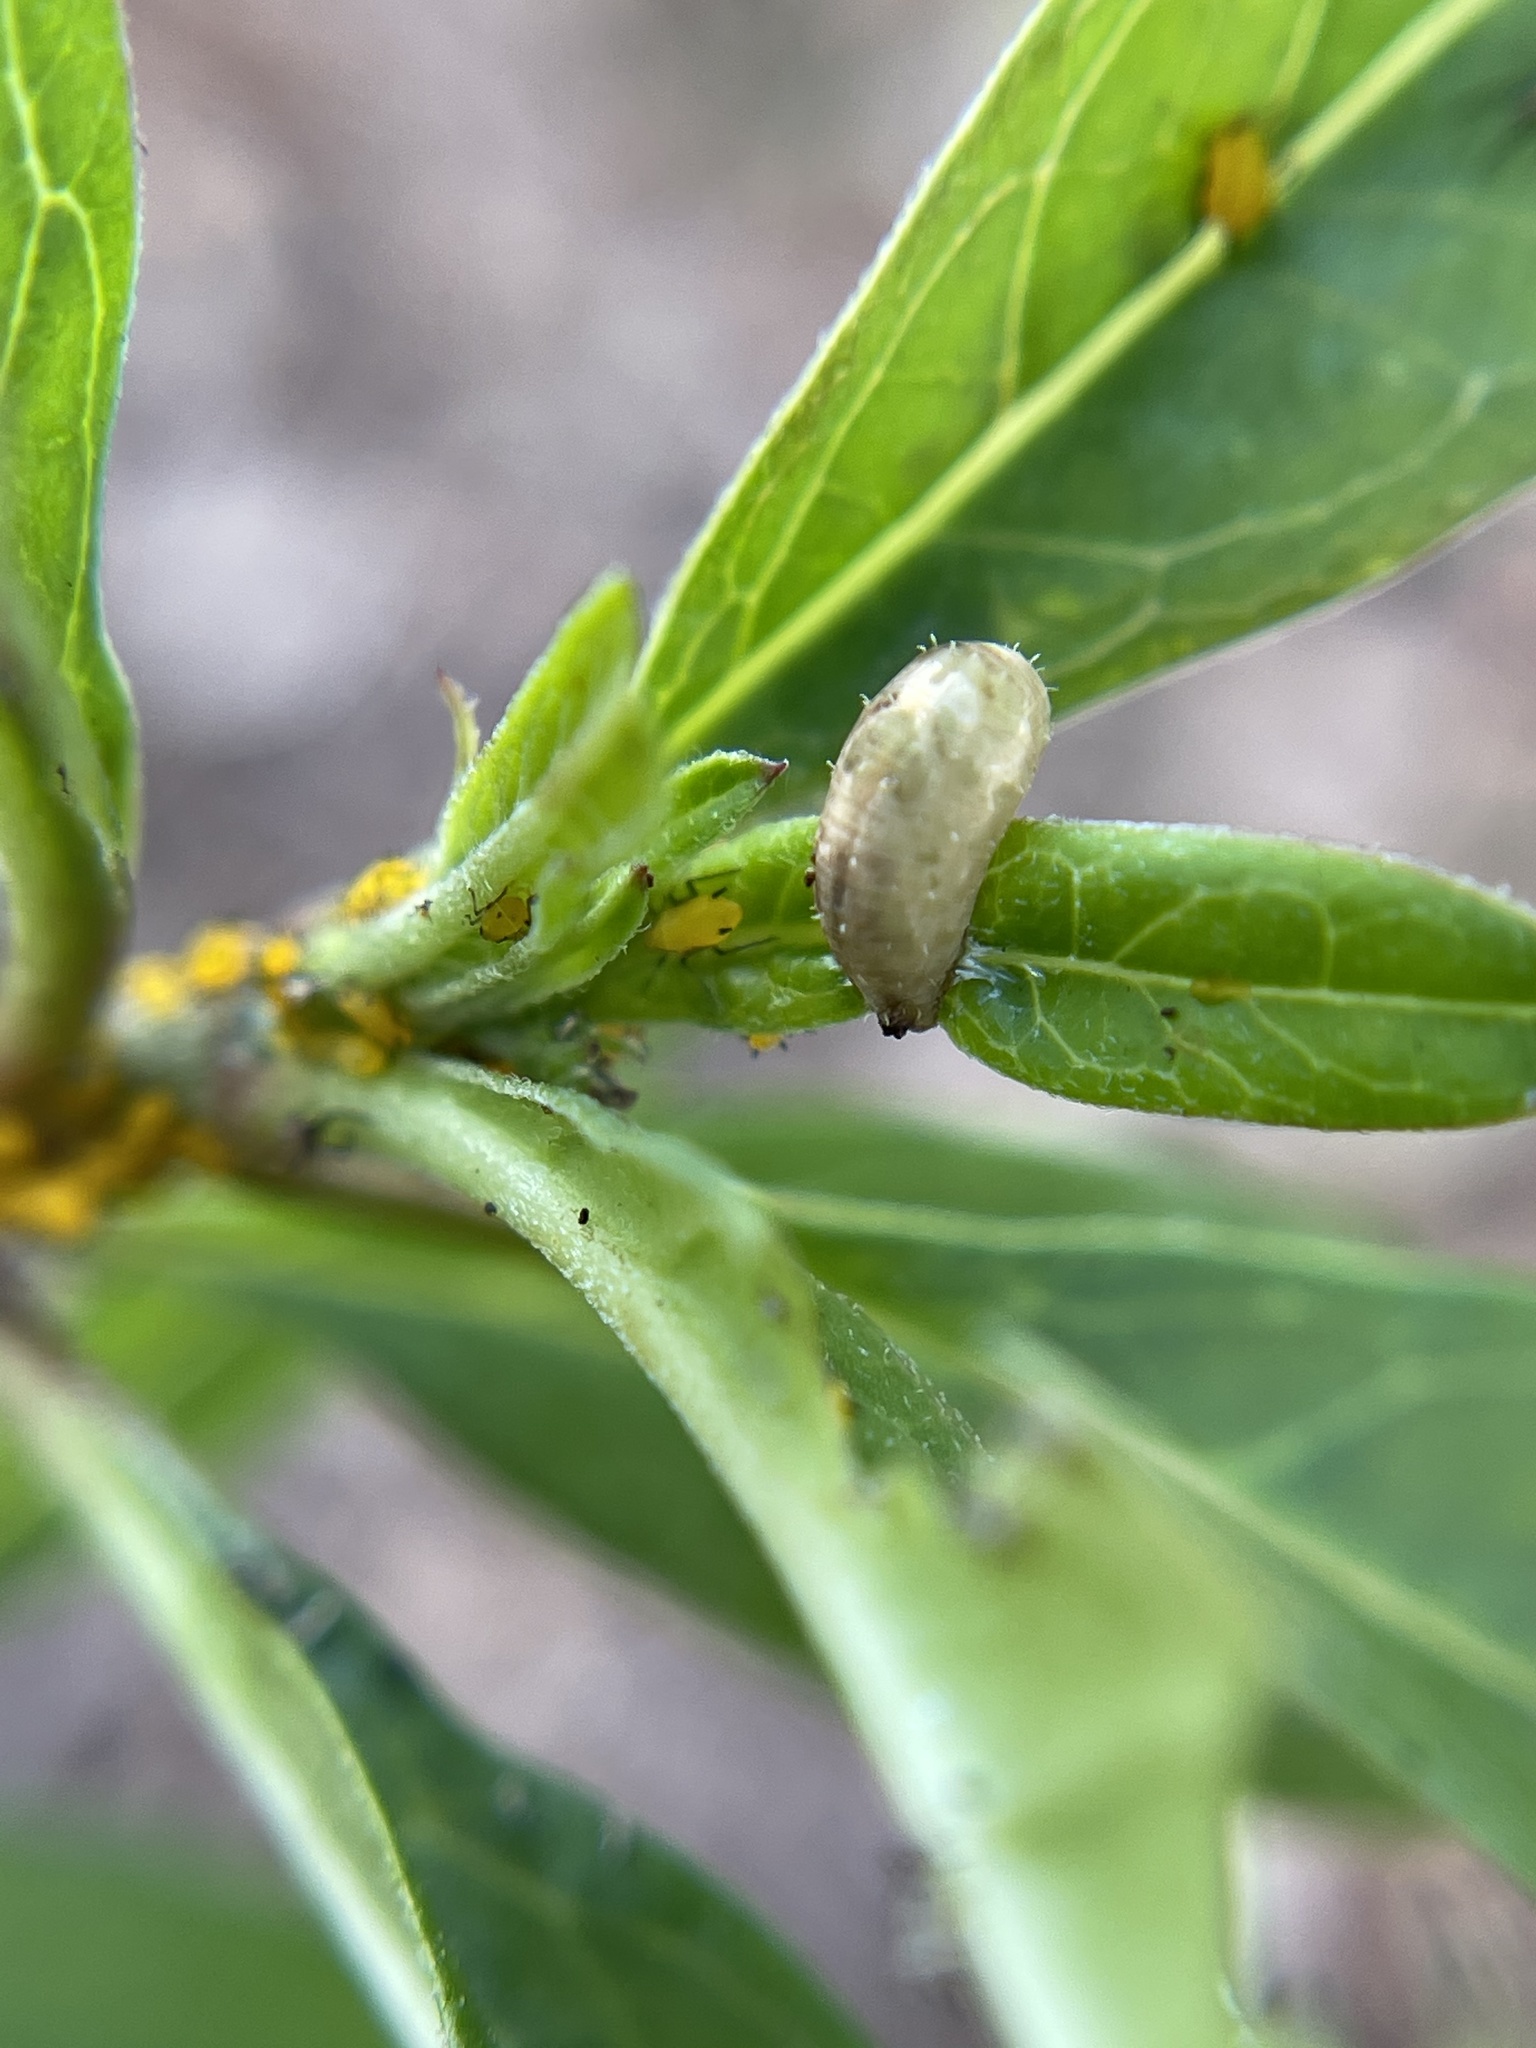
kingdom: Animalia
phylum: Arthropoda
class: Insecta
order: Diptera
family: Syrphidae
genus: Dioprosopa
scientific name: Dioprosopa clavatus
